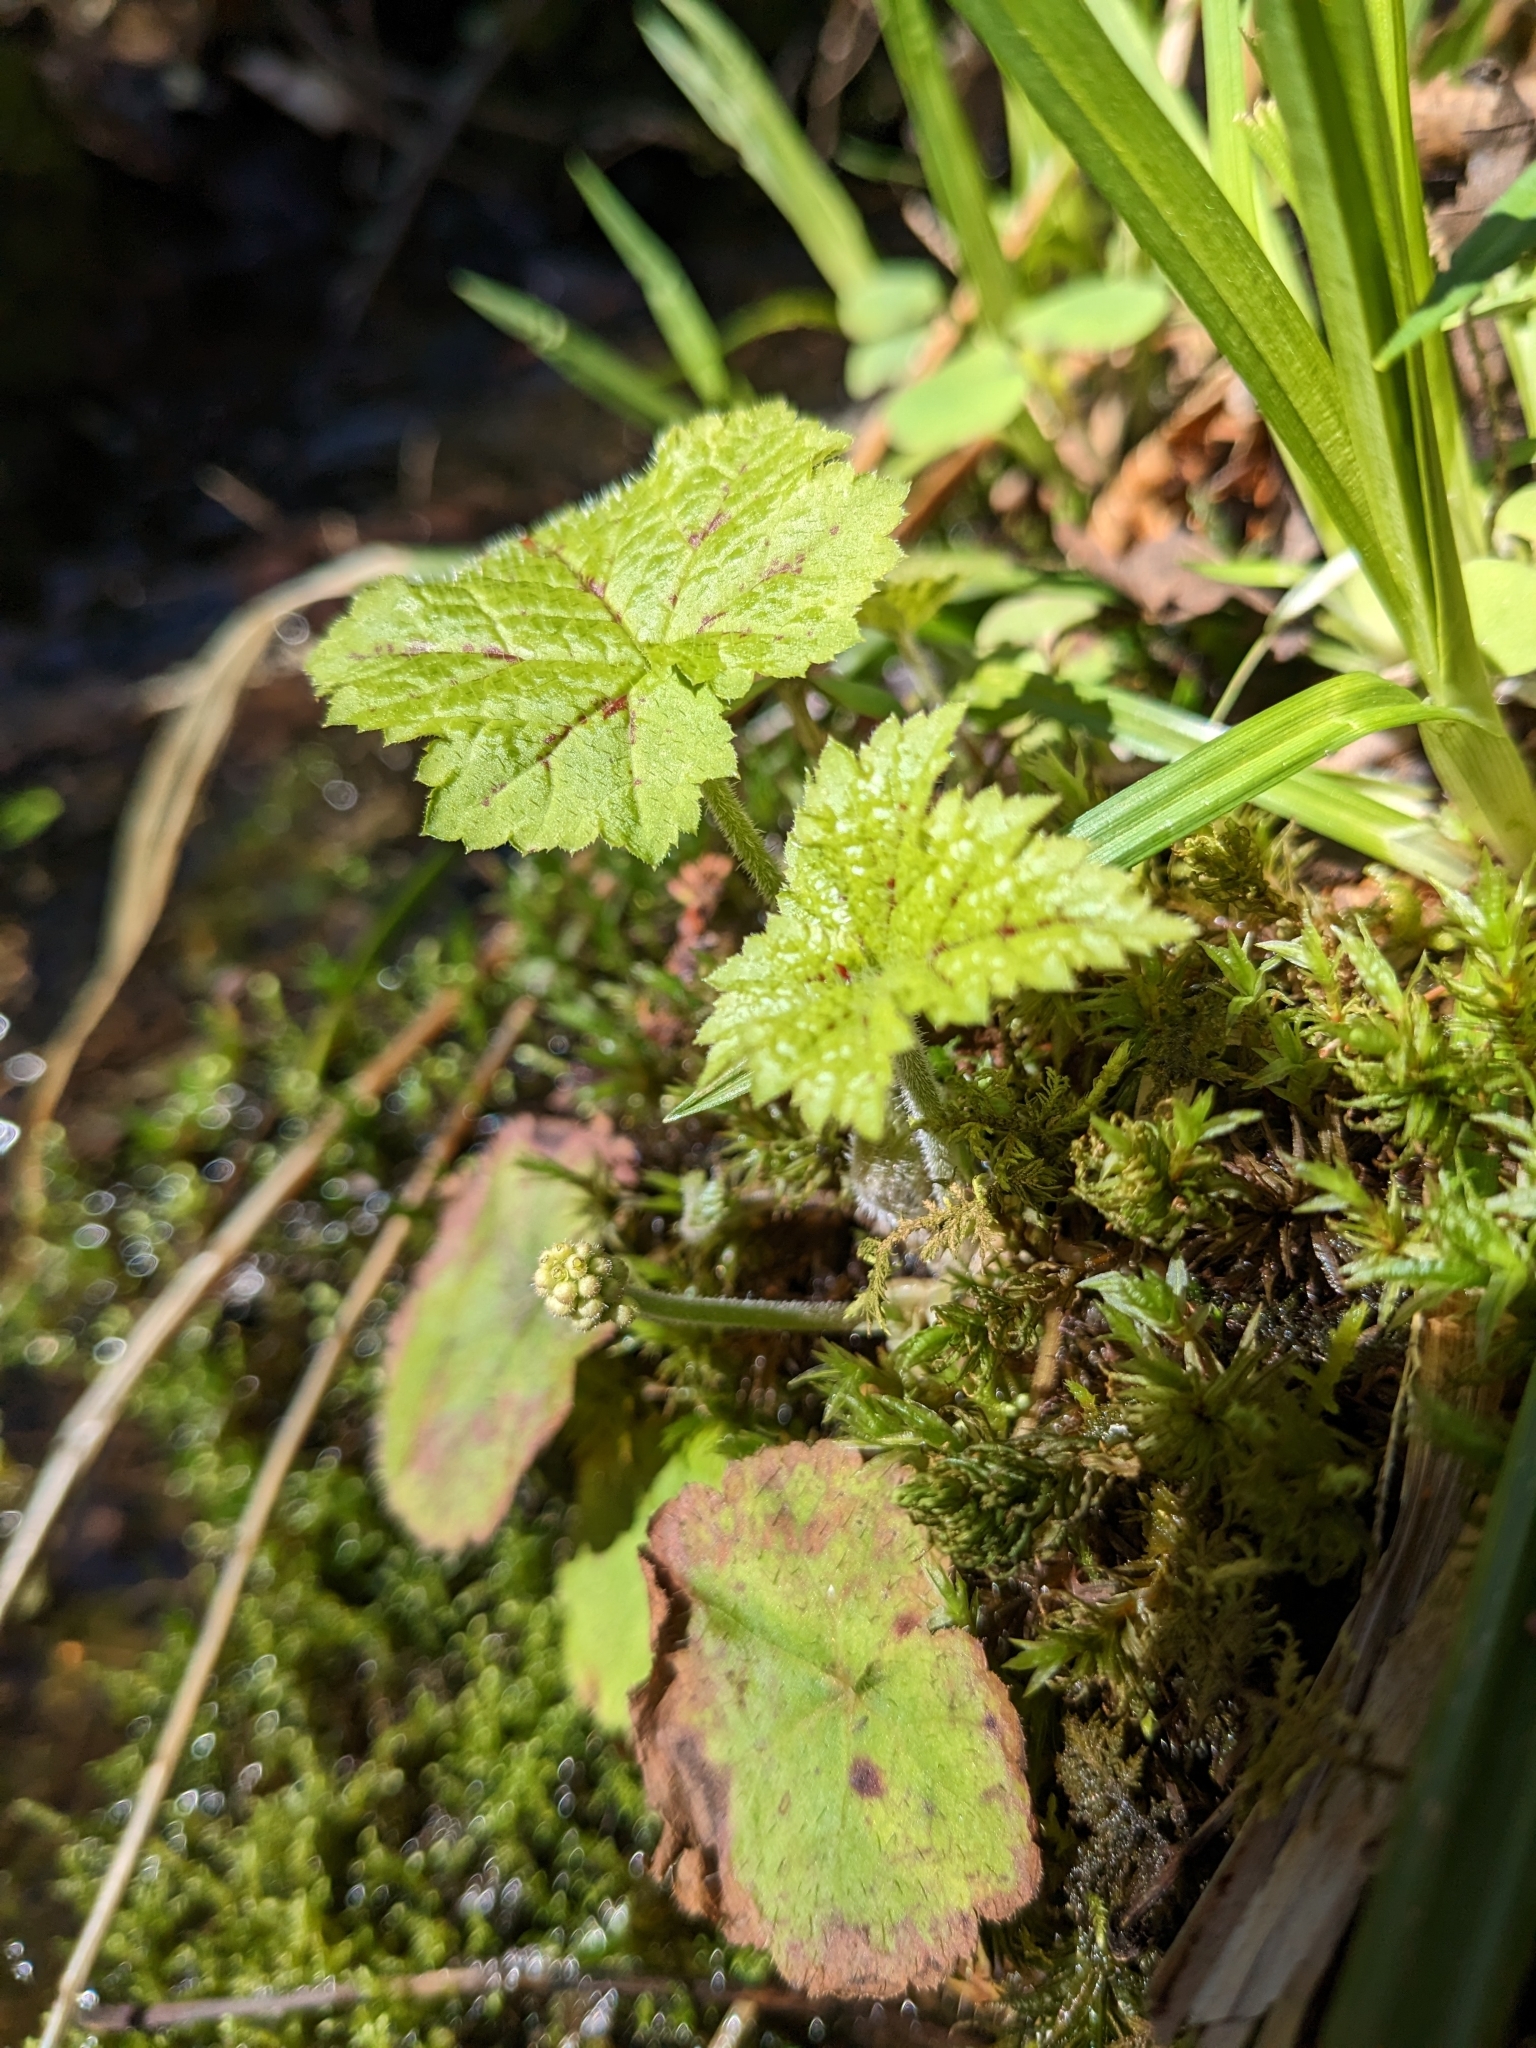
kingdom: Plantae
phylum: Tracheophyta
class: Magnoliopsida
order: Saxifragales
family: Saxifragaceae
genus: Tiarella
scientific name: Tiarella stolonifera
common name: Stoloniferous foamflower
